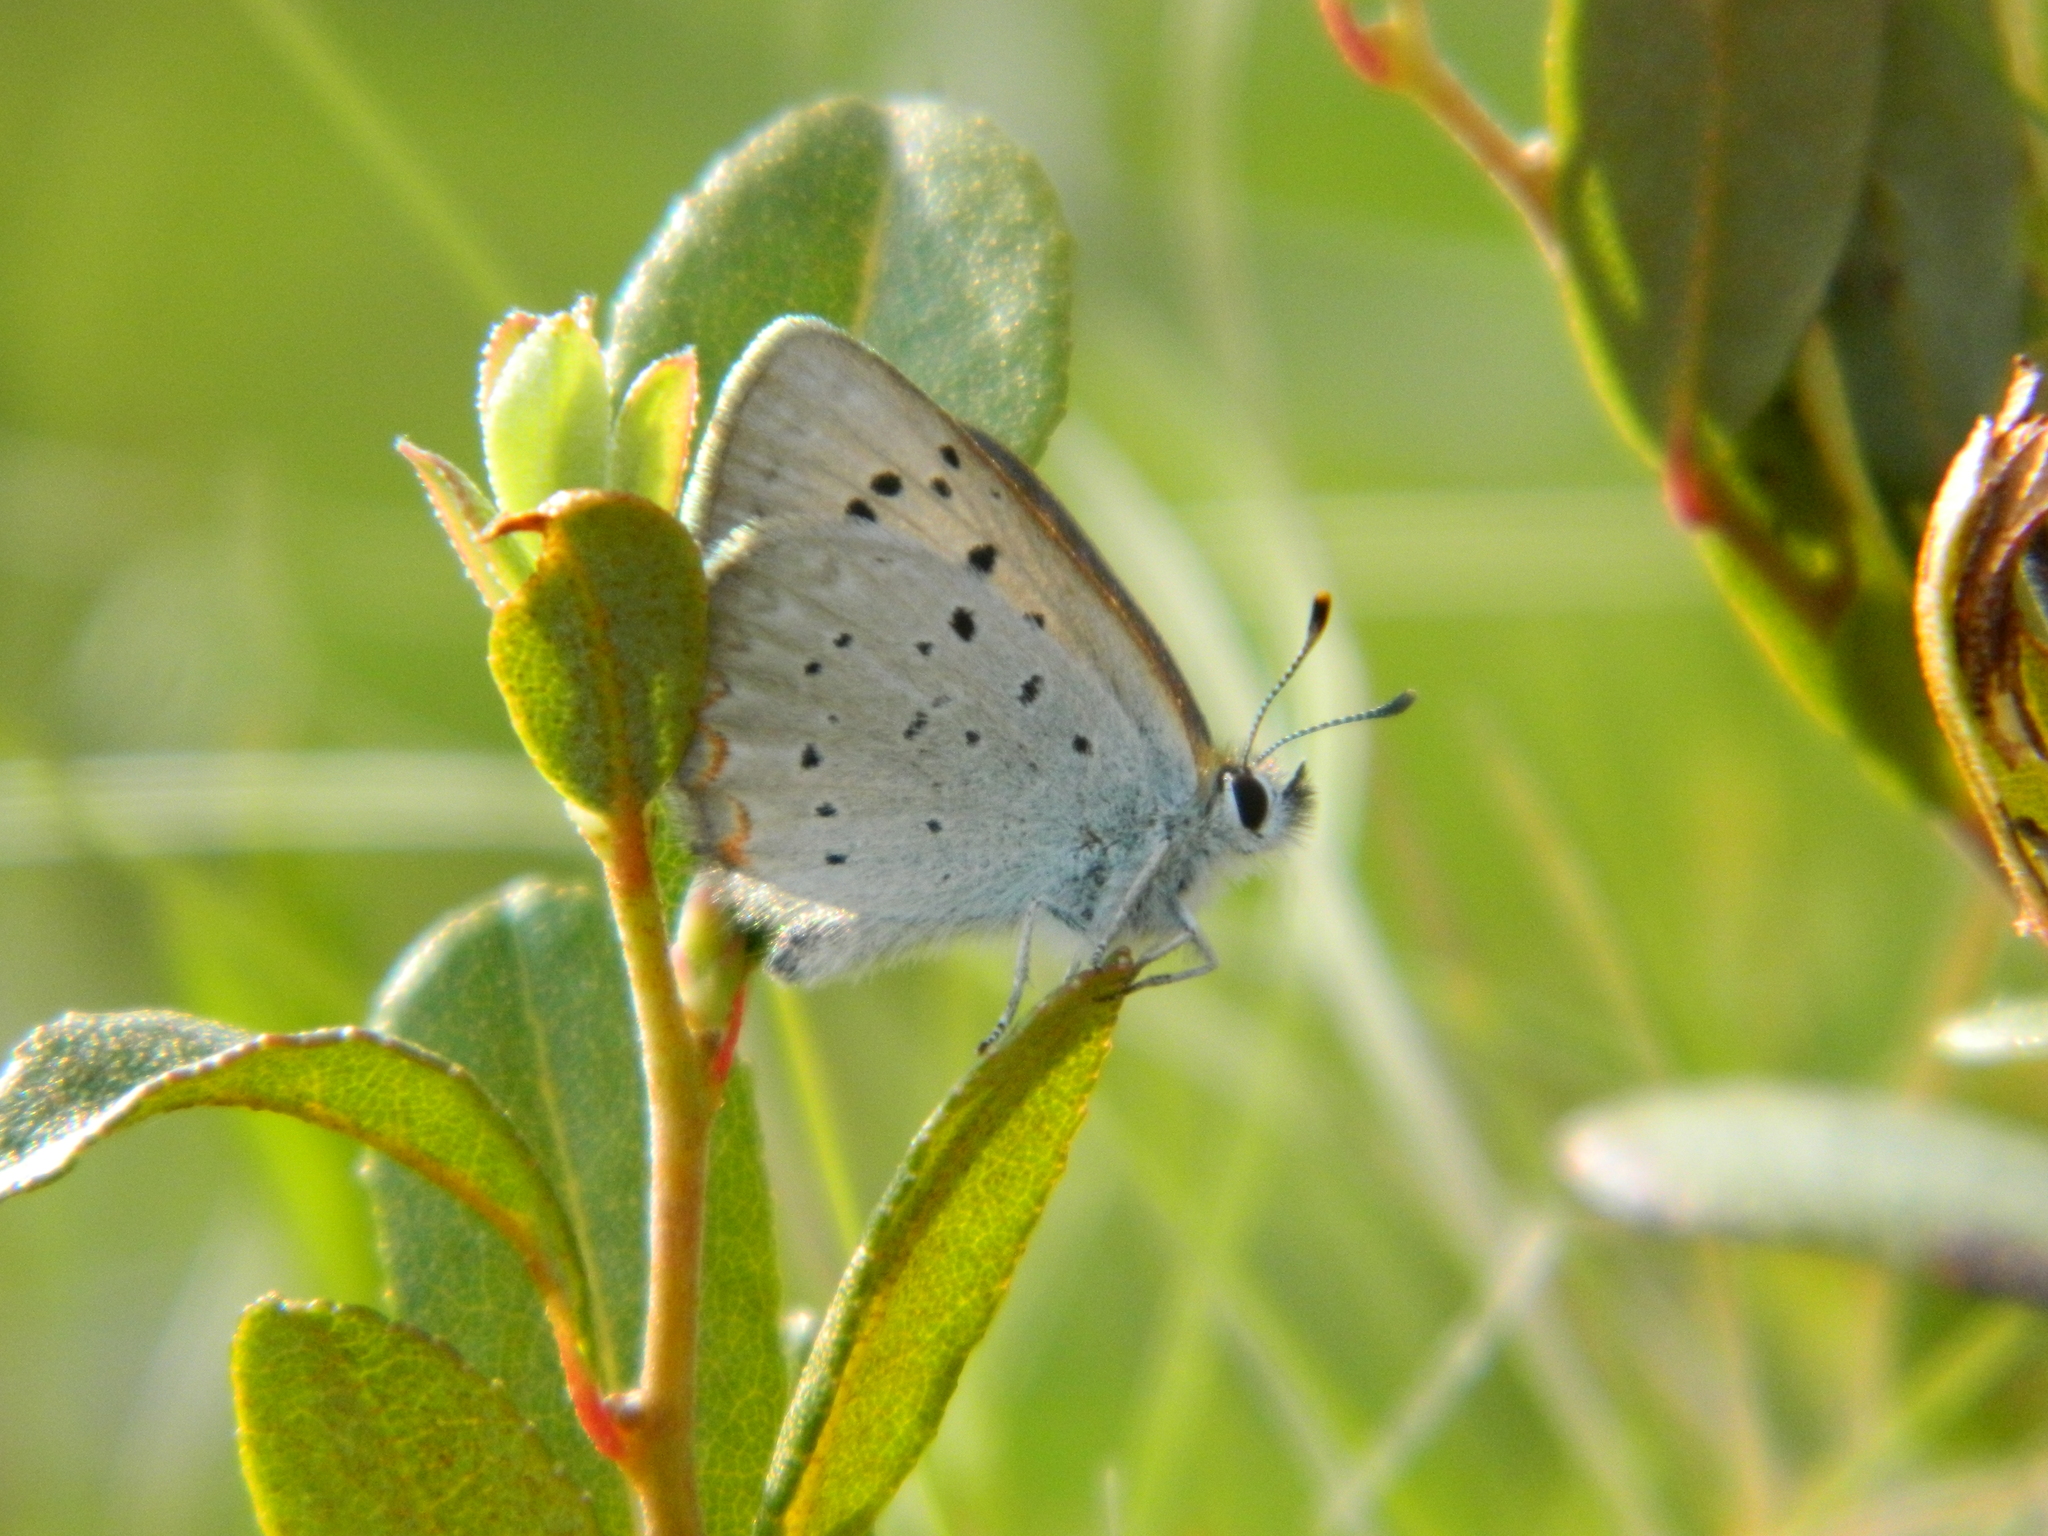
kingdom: Animalia
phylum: Arthropoda
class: Insecta
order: Lepidoptera
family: Lycaenidae
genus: Tharsalea
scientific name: Tharsalea epixanthe
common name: Bog copper
